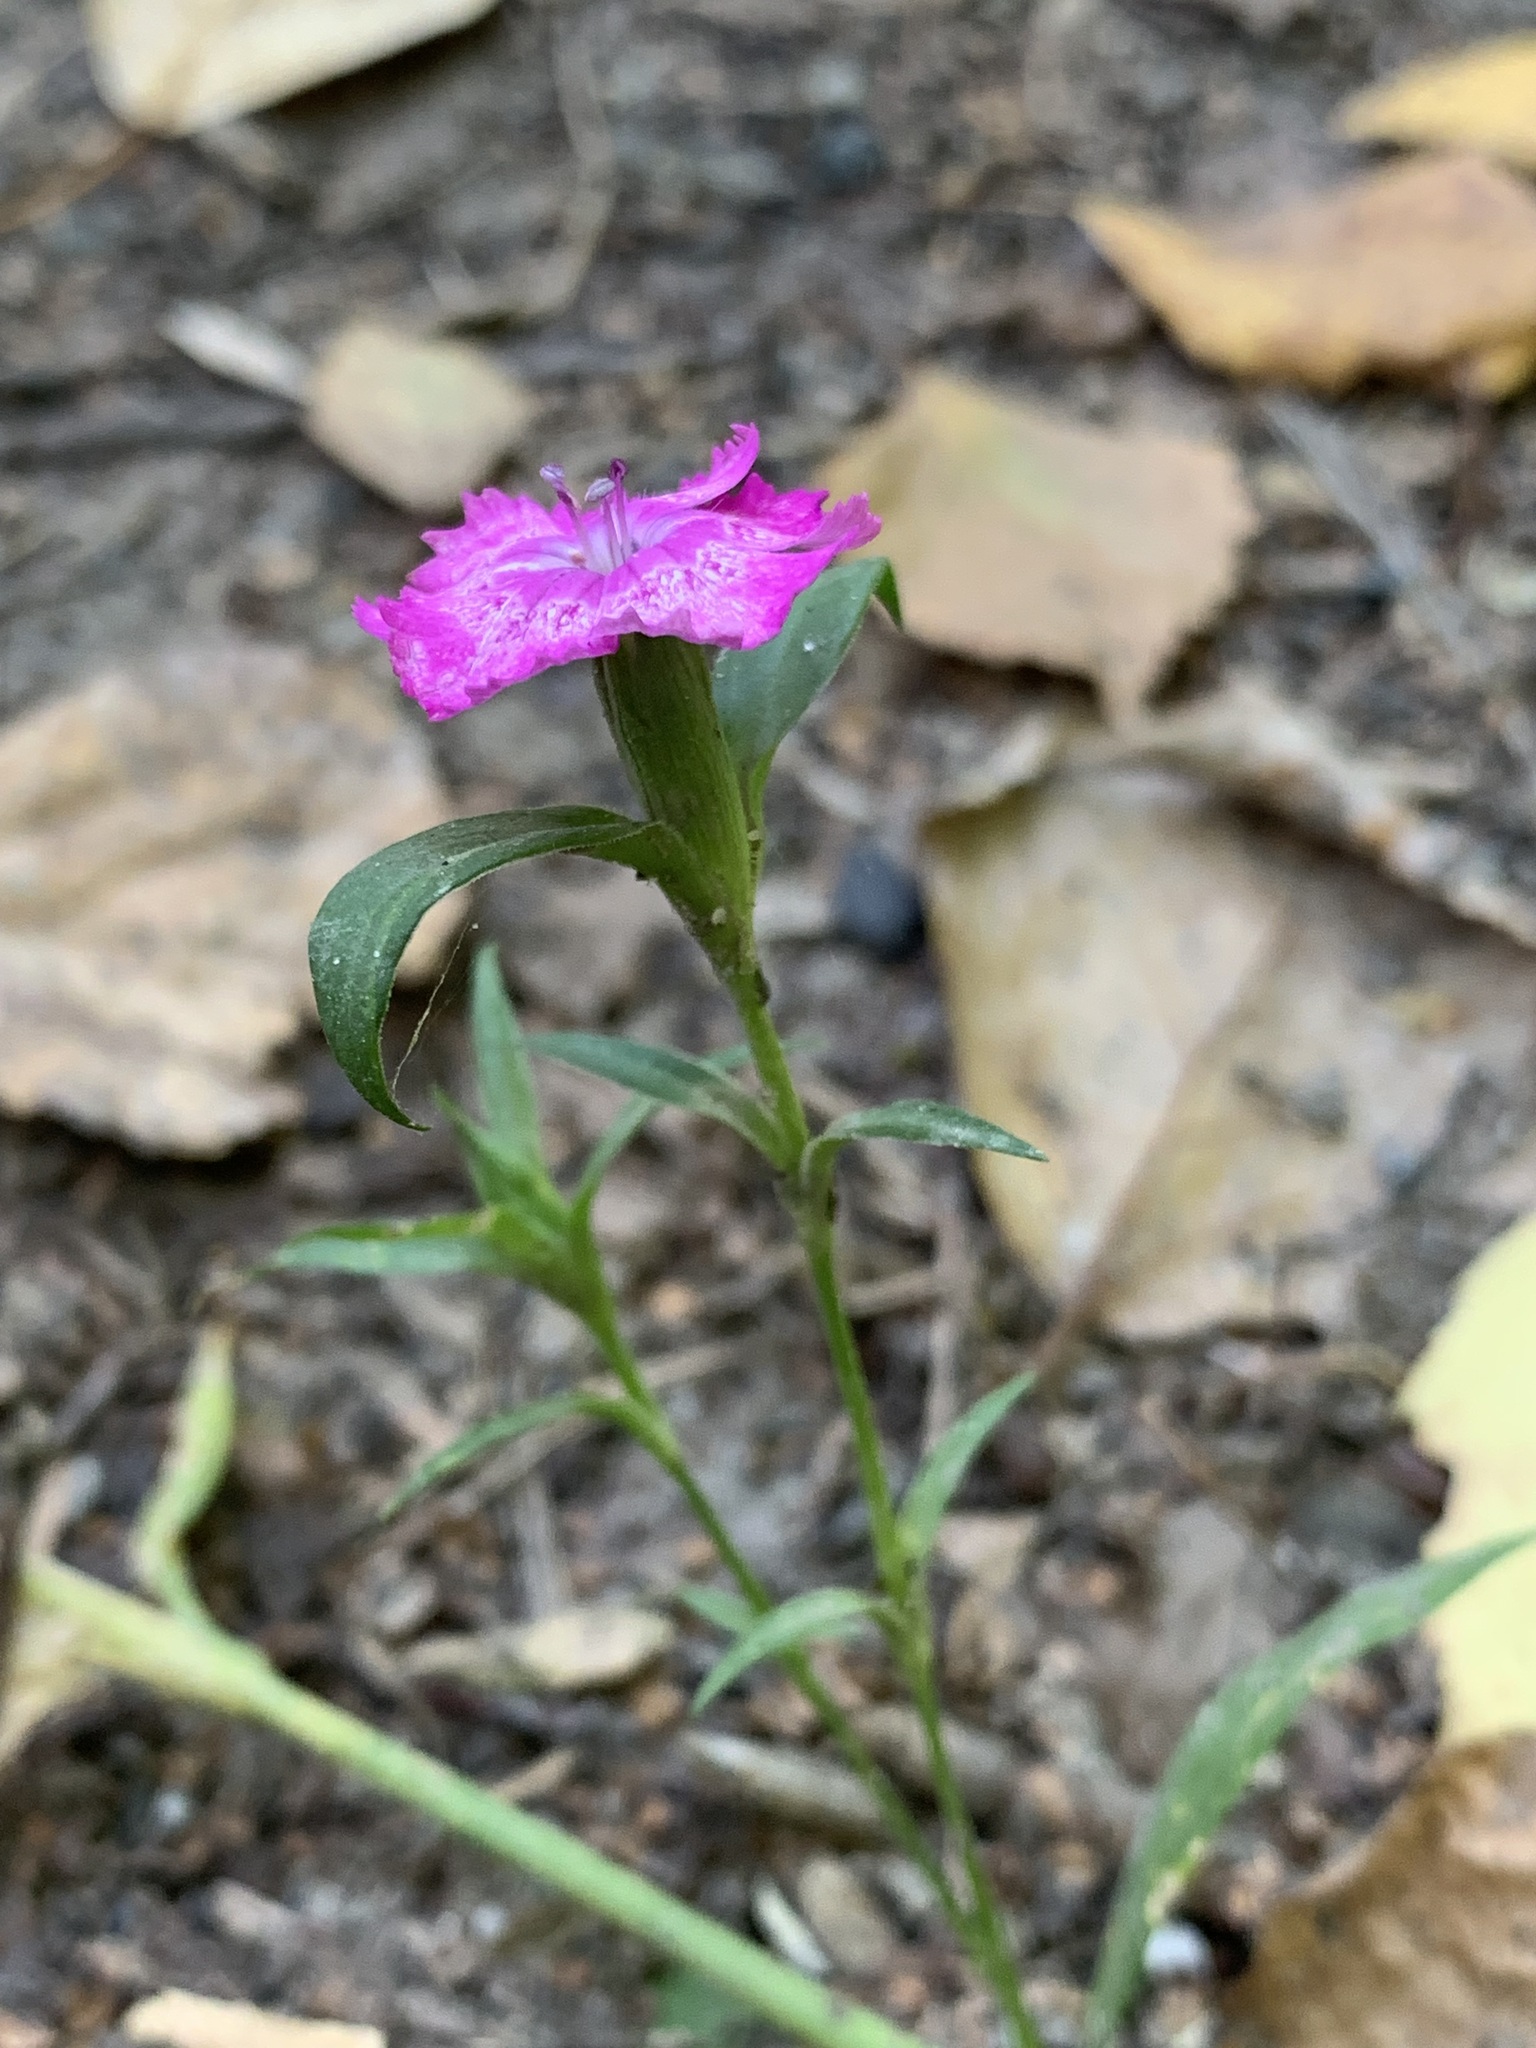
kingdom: Plantae
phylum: Tracheophyta
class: Magnoliopsida
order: Caryophyllales
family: Caryophyllaceae
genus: Dianthus
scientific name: Dianthus barbatus
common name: Sweet-william
